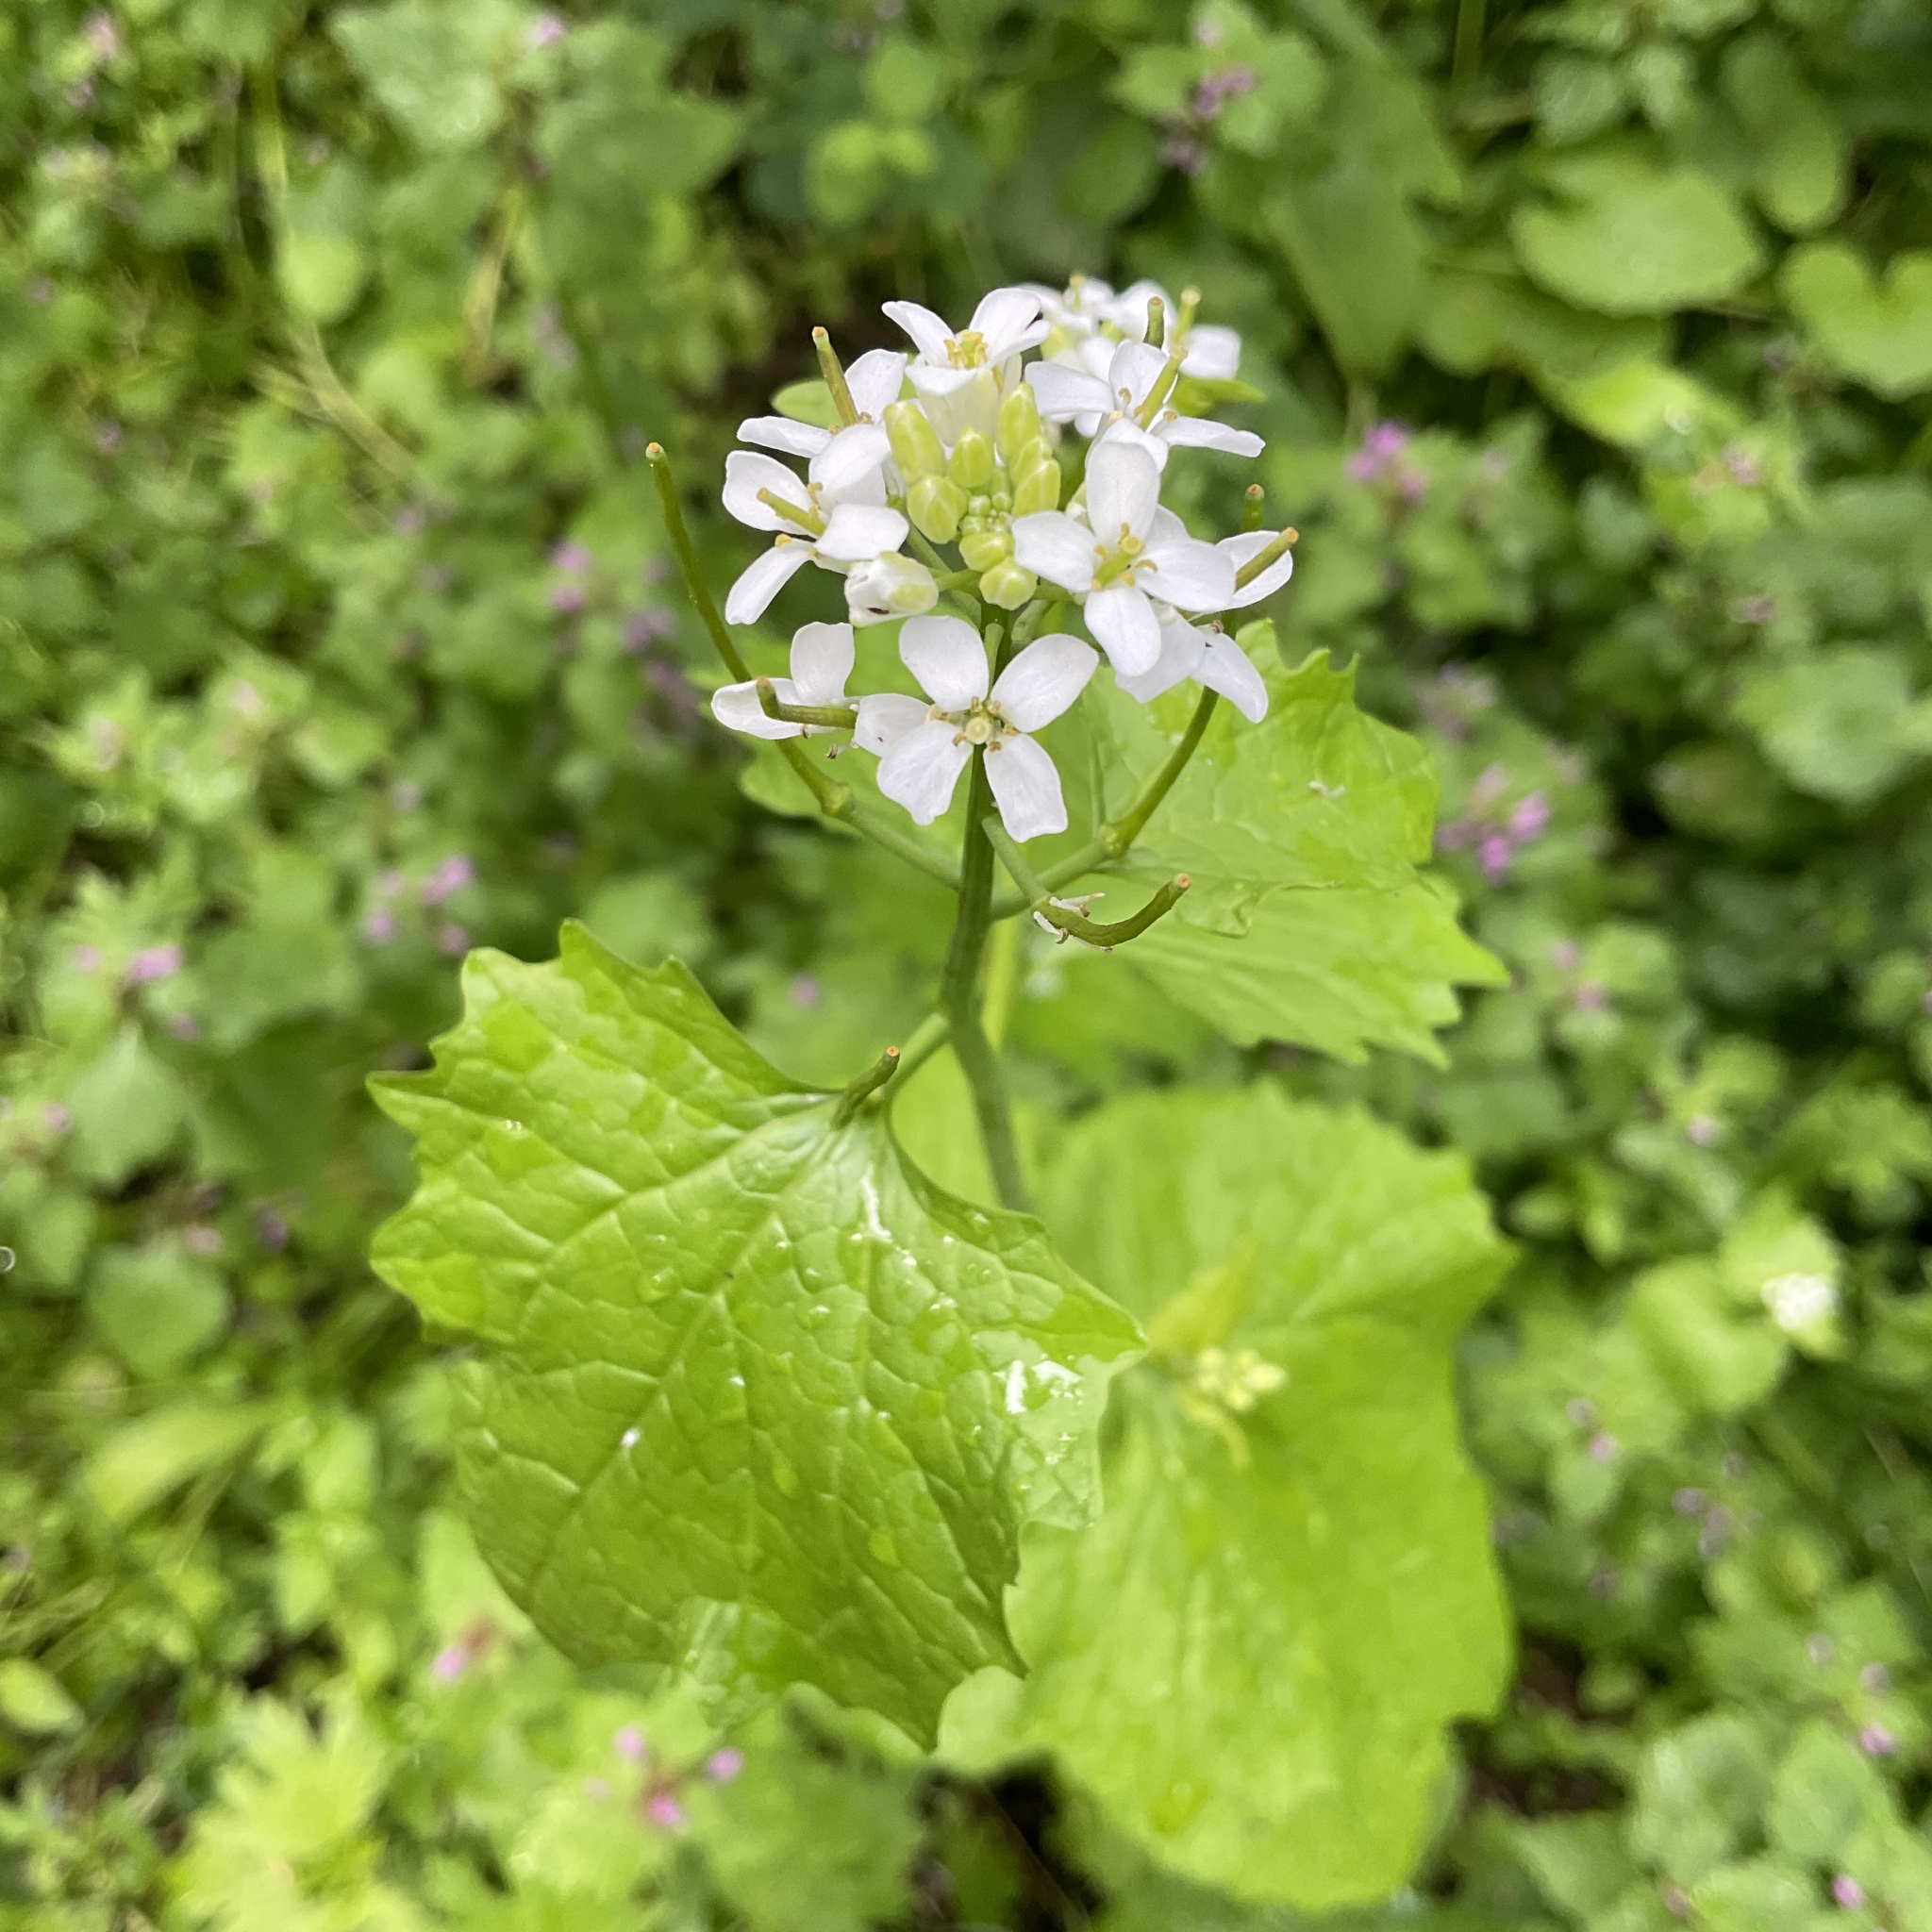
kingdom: Plantae
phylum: Tracheophyta
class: Magnoliopsida
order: Brassicales
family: Brassicaceae
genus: Alliaria
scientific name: Alliaria petiolata
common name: Garlic mustard
